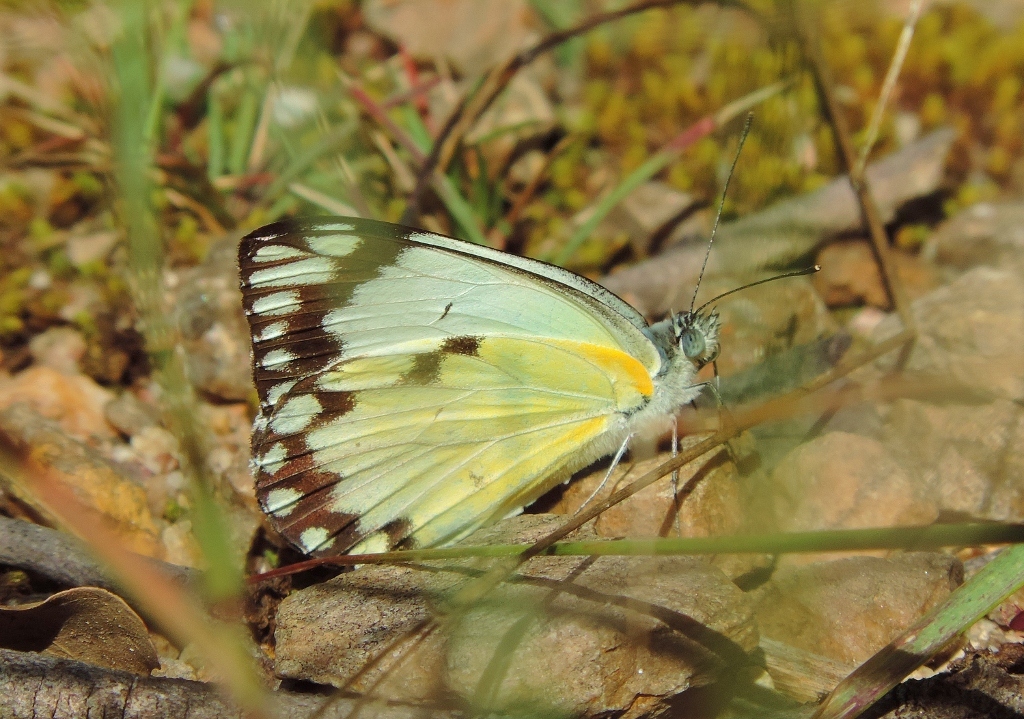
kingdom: Animalia
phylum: Arthropoda
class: Insecta
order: Lepidoptera
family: Pieridae
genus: Belenois
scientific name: Belenois creona
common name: African caper white
